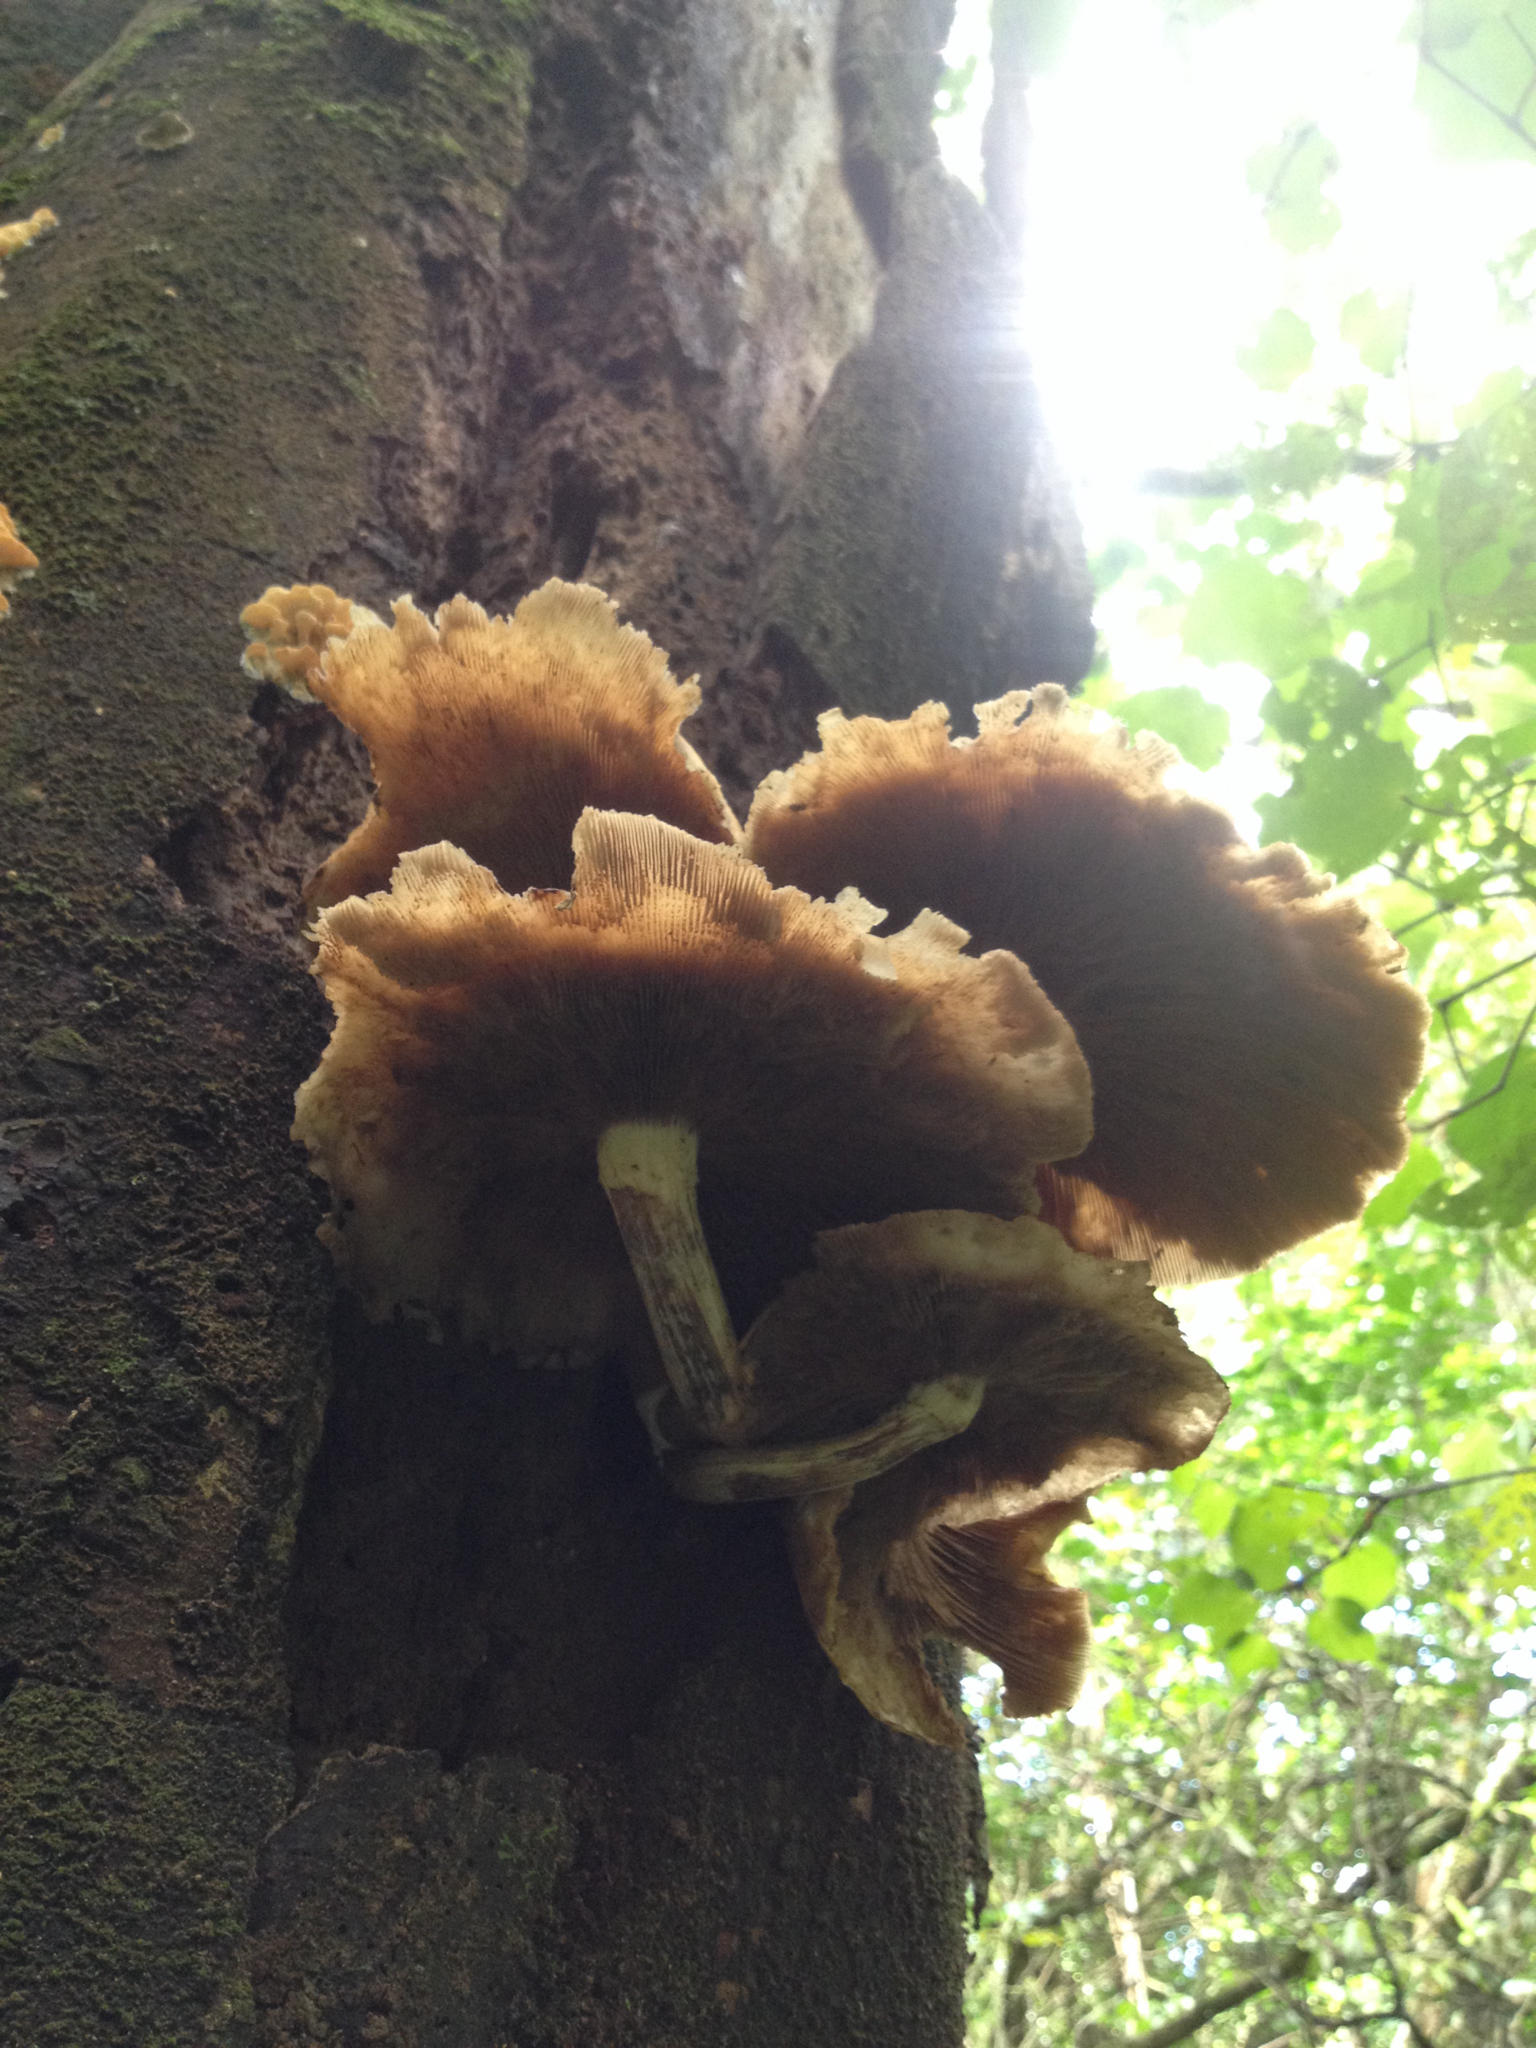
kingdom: Fungi
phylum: Basidiomycota
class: Agaricomycetes
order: Agaricales
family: Tubariaceae
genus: Cyclocybe
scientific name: Cyclocybe parasitica
